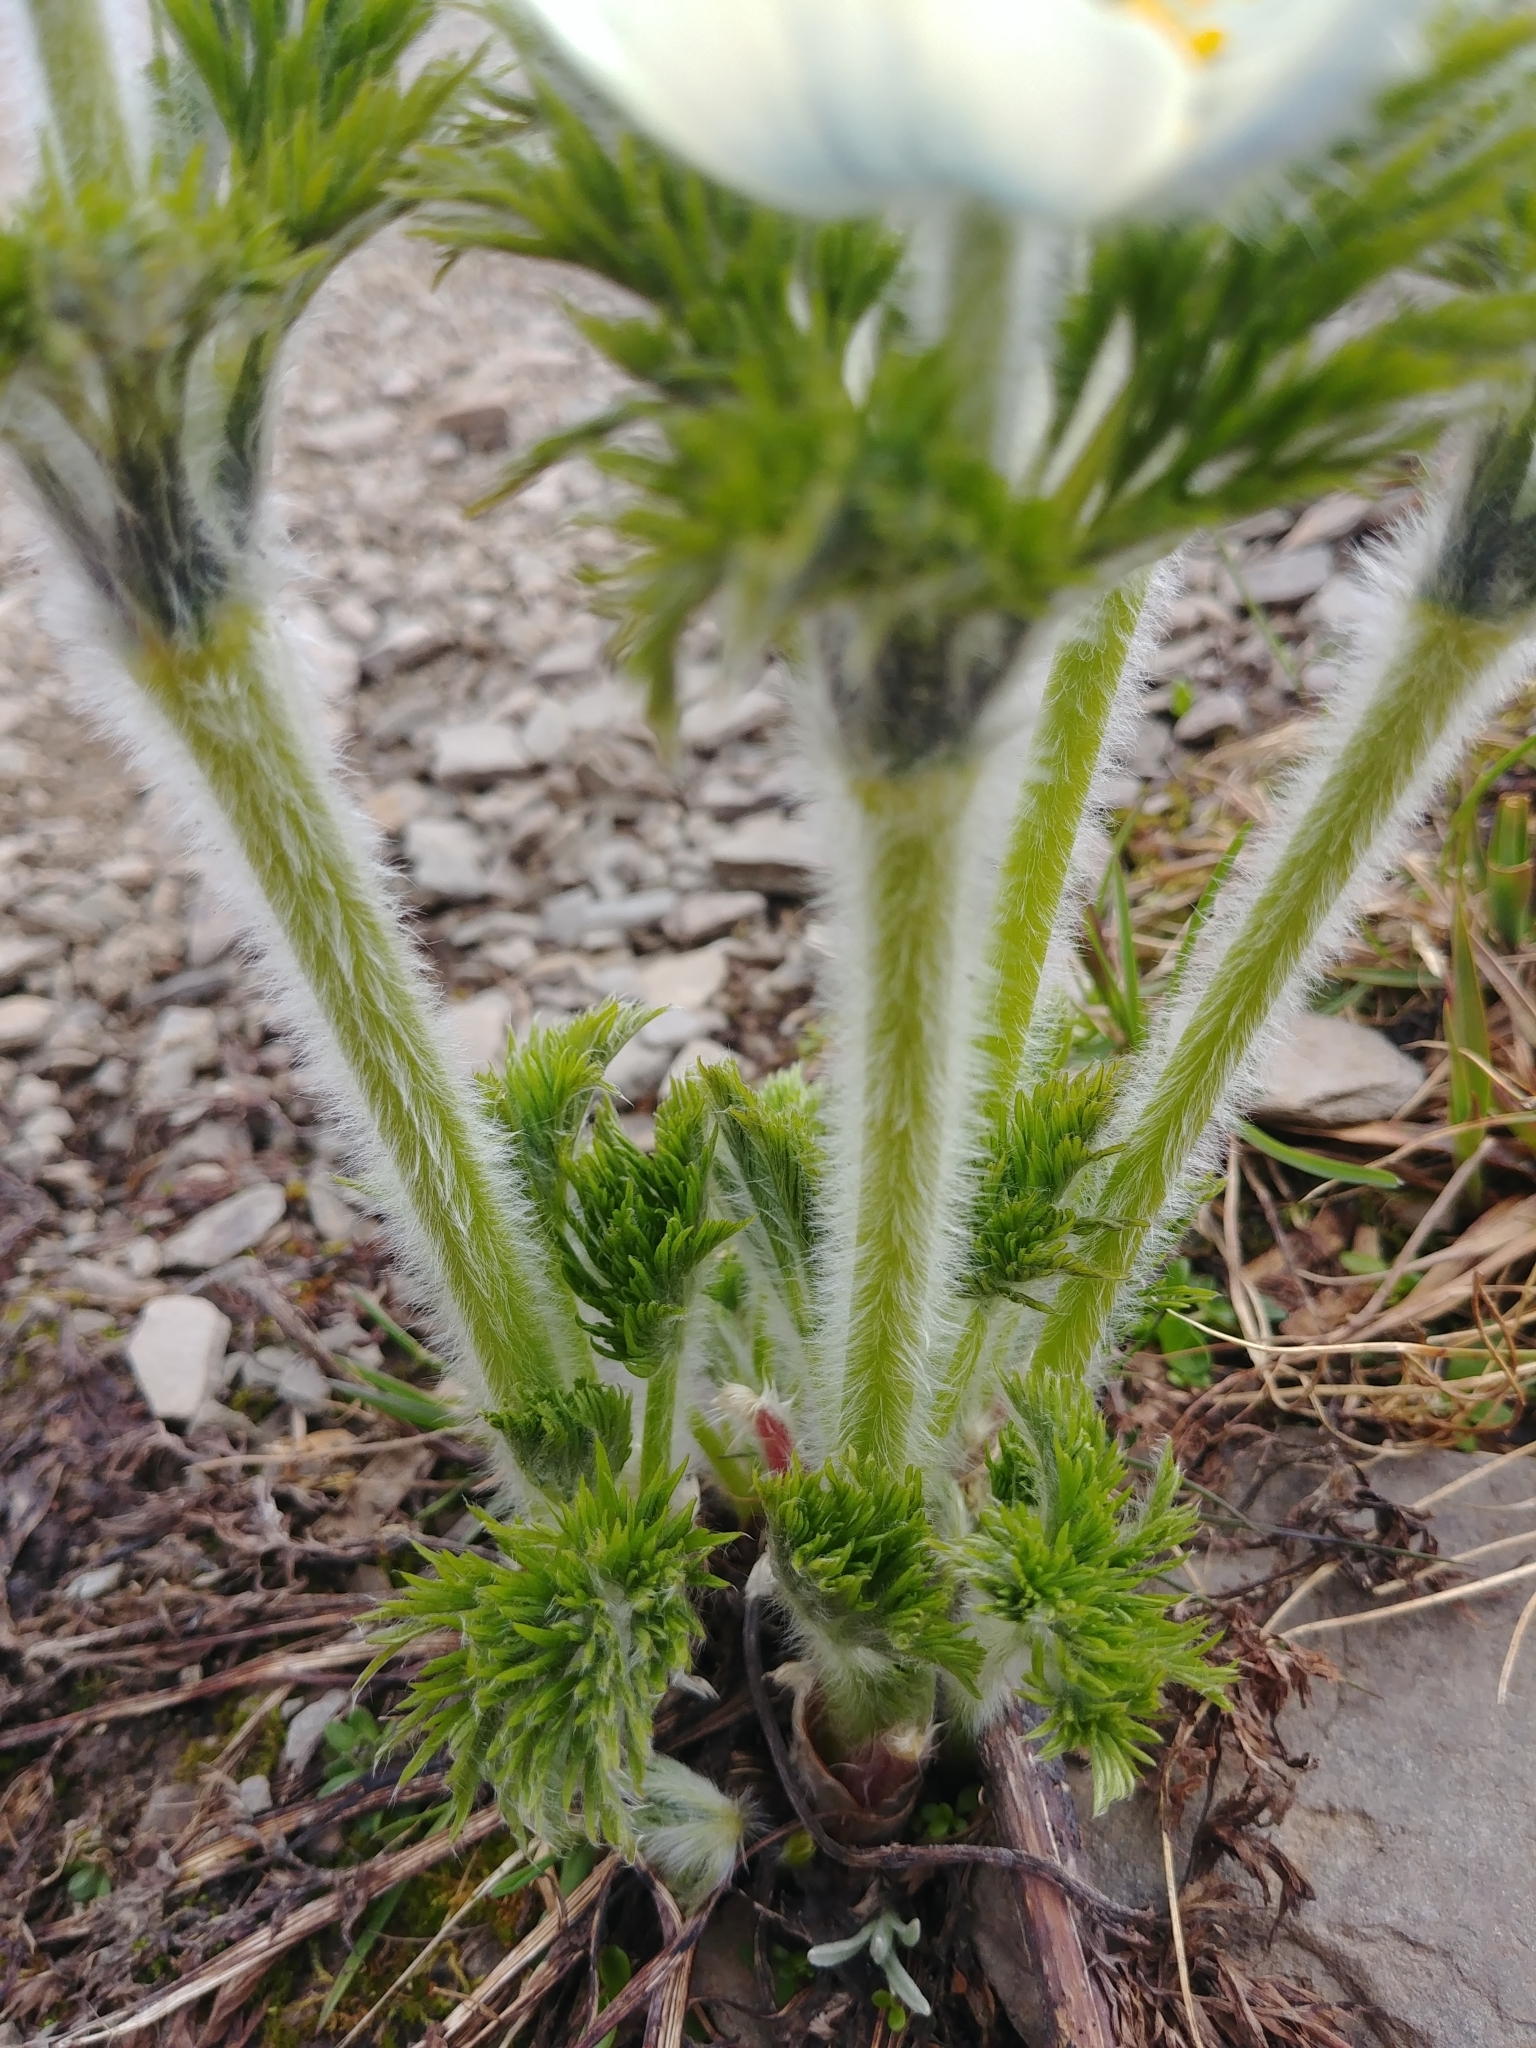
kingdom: Plantae
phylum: Tracheophyta
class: Magnoliopsida
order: Ranunculales
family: Ranunculaceae
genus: Pulsatilla
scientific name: Pulsatilla occidentalis
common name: Mountain pasqueflower
